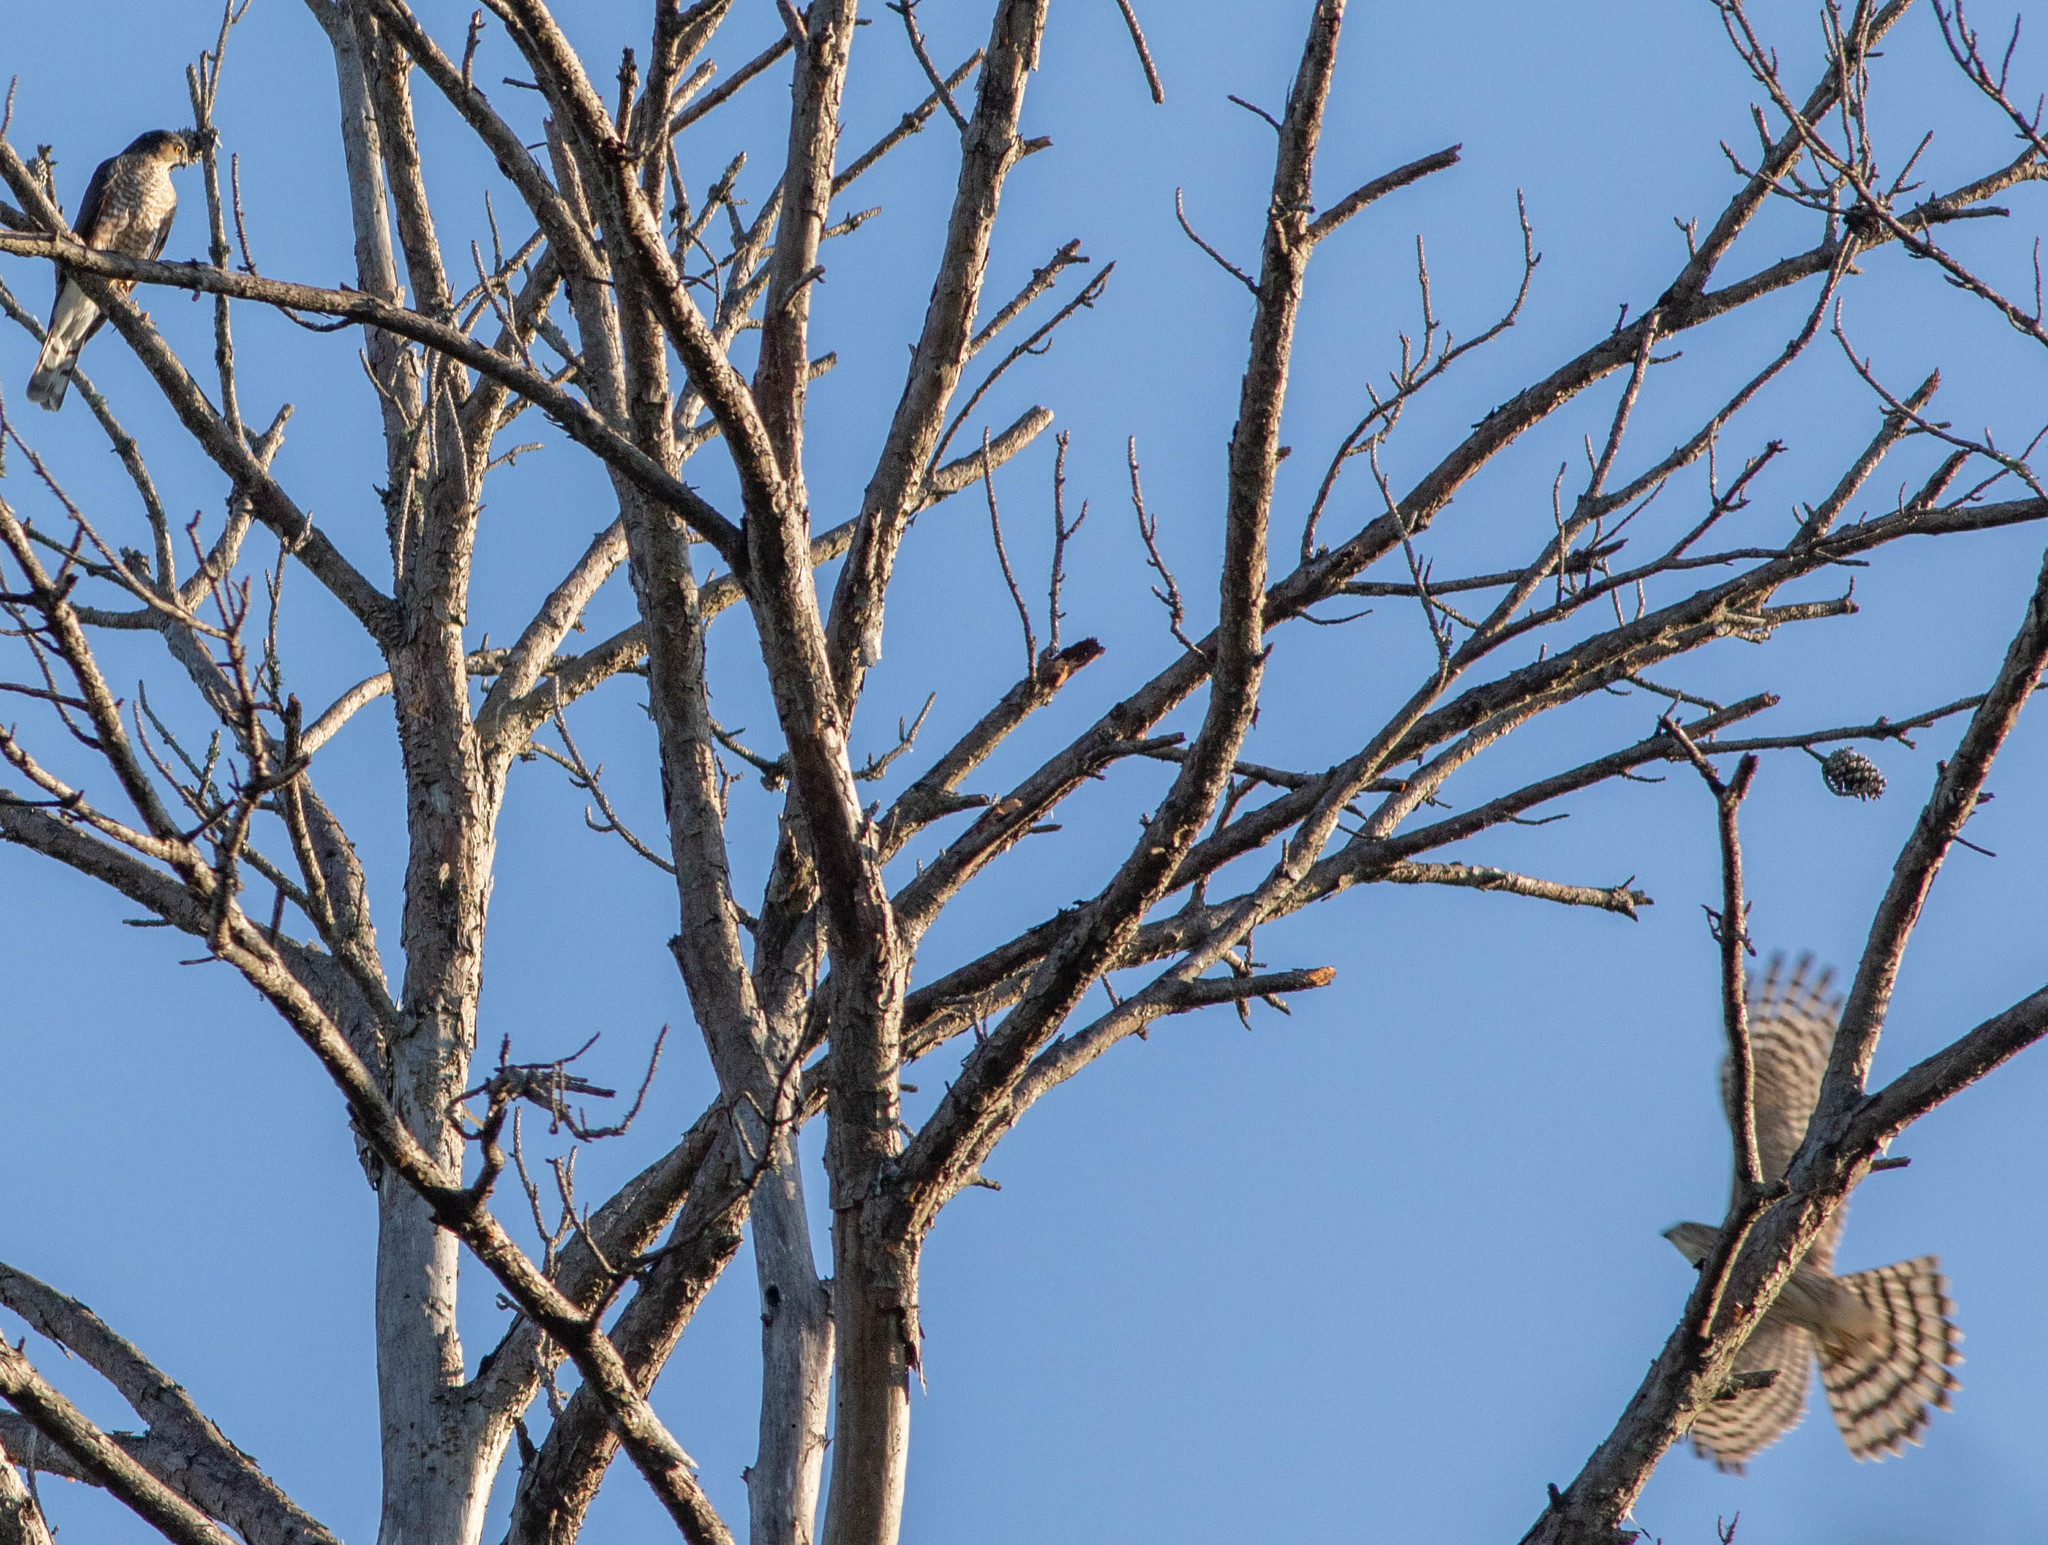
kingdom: Animalia
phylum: Chordata
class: Aves
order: Accipitriformes
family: Accipitridae
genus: Accipiter
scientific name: Accipiter cooperii
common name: Cooper's hawk
